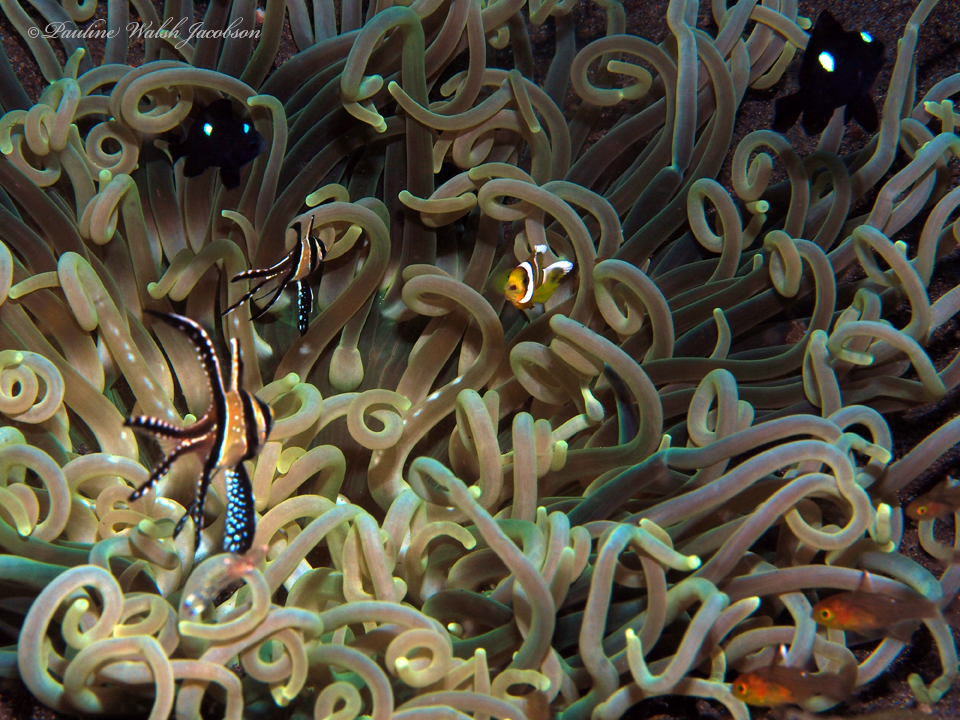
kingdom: Animalia
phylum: Cnidaria
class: Anthozoa
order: Actiniaria
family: Heteractidae
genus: Heteractis
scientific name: Heteractis
